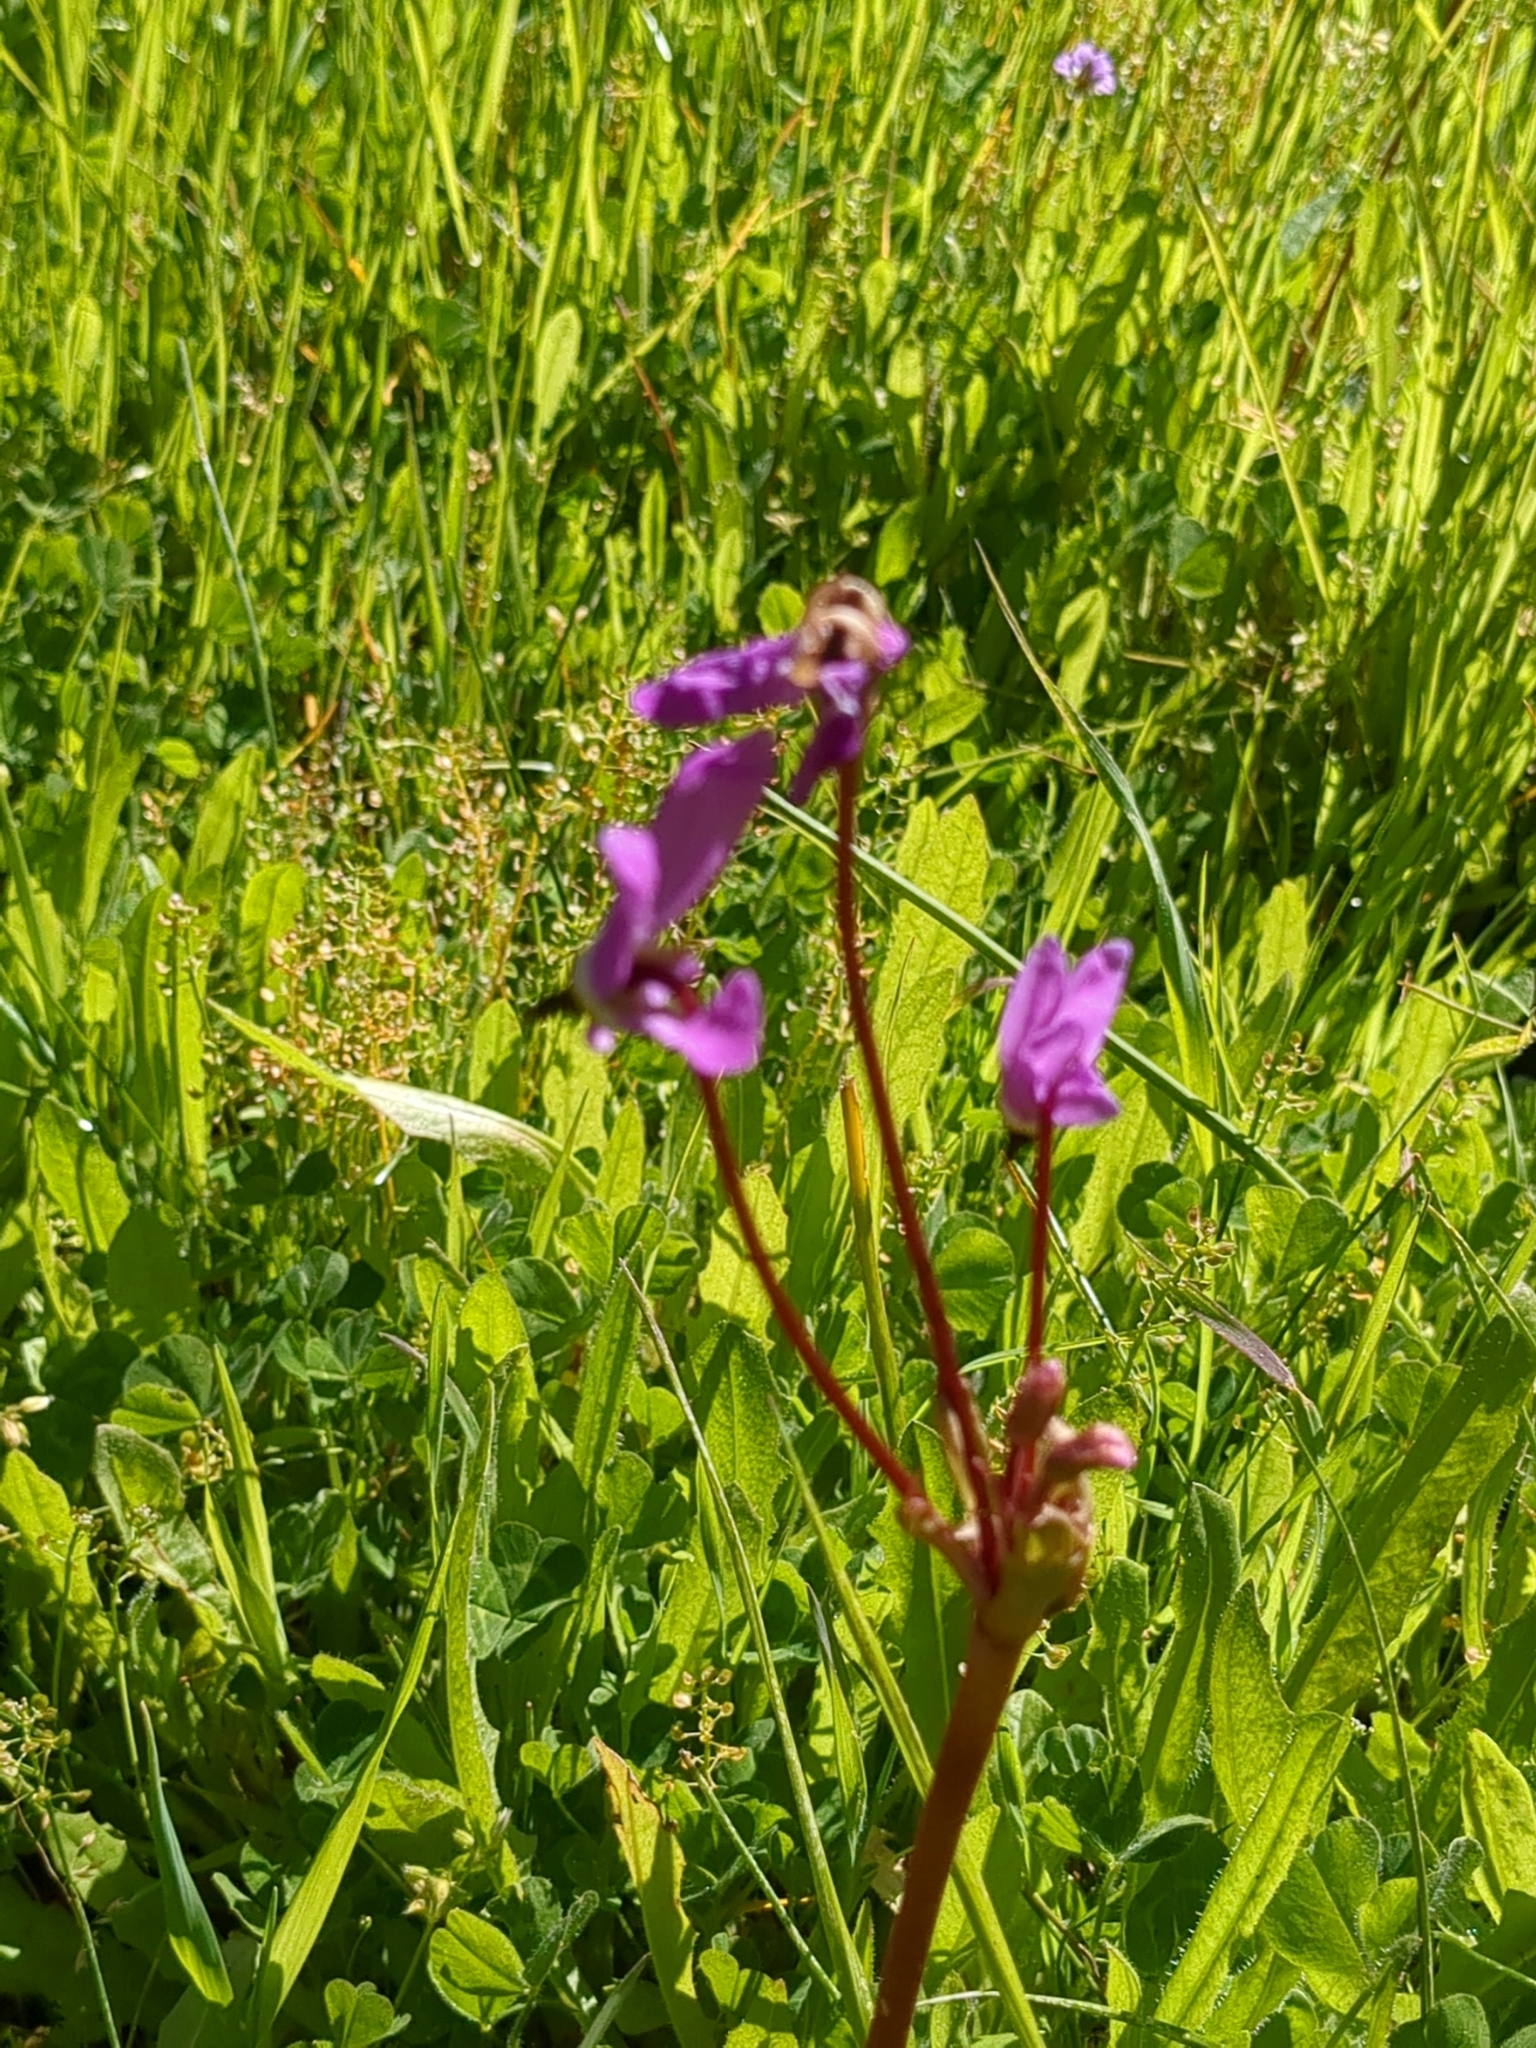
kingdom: Plantae
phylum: Tracheophyta
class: Magnoliopsida
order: Ericales
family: Primulaceae
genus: Dodecatheon
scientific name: Dodecatheon hendersonii
